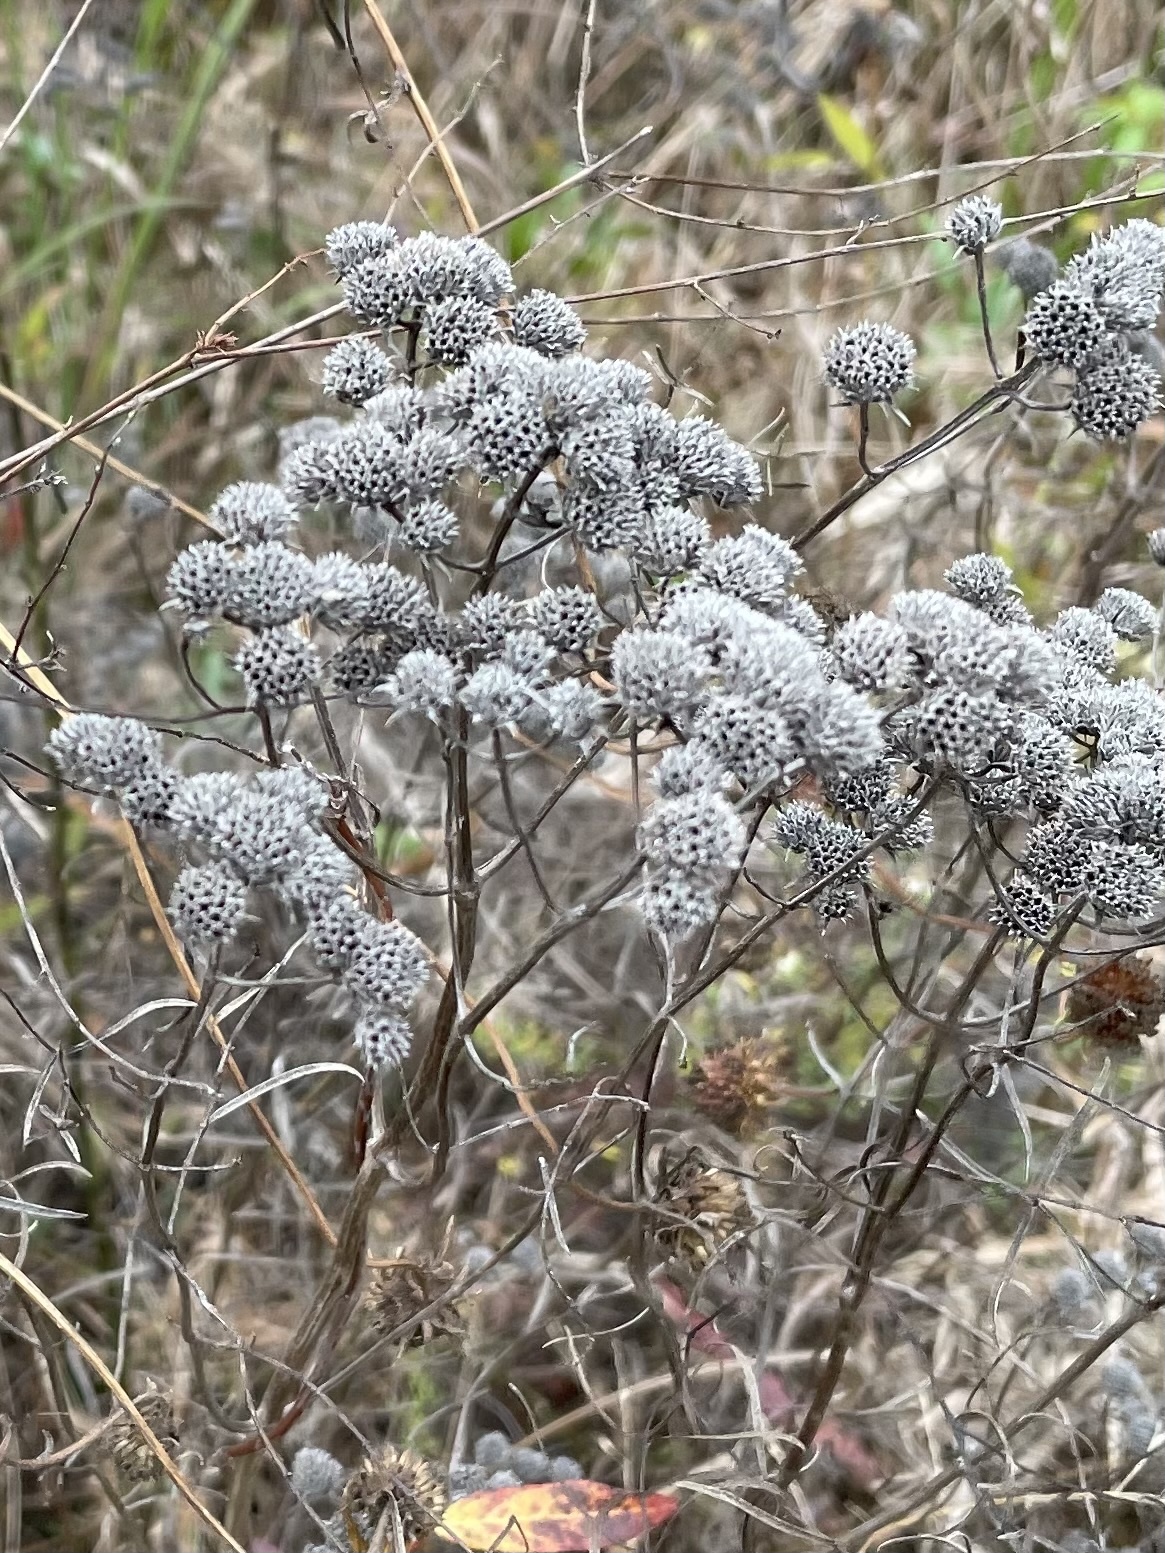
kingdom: Plantae
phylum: Tracheophyta
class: Magnoliopsida
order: Lamiales
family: Lamiaceae
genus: Pycnanthemum
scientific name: Pycnanthemum tenuifolium
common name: Narrow-leaf mountain-mint
